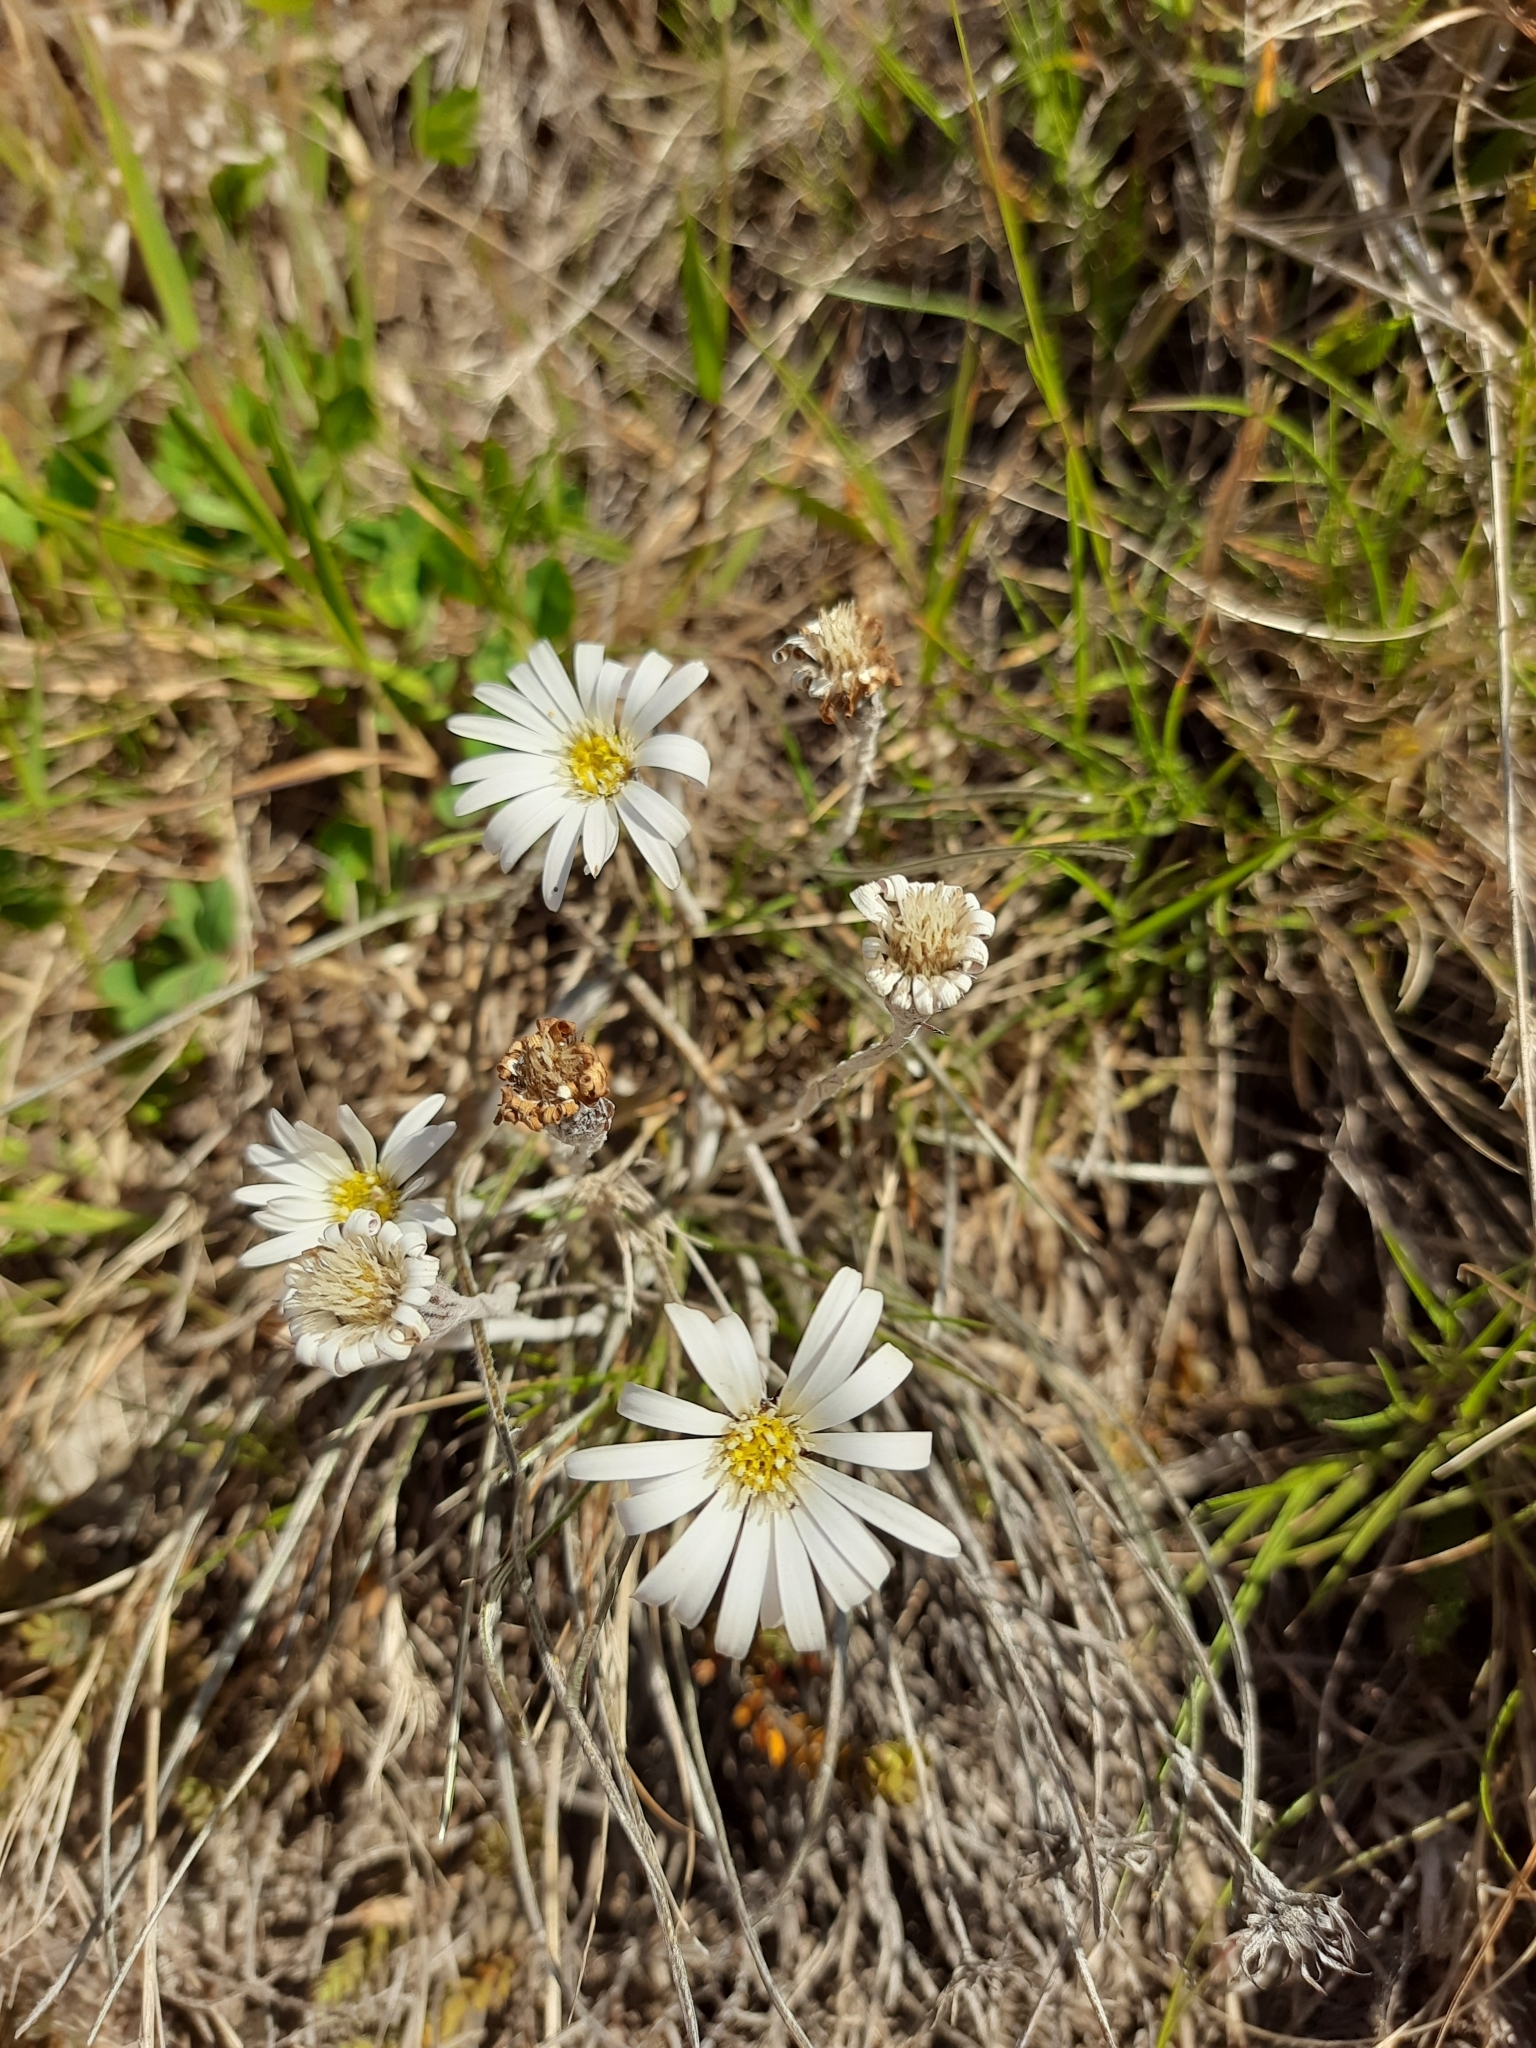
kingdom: Plantae
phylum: Tracheophyta
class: Magnoliopsida
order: Asterales
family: Asteraceae
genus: Celmisia
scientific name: Celmisia gracilenta
